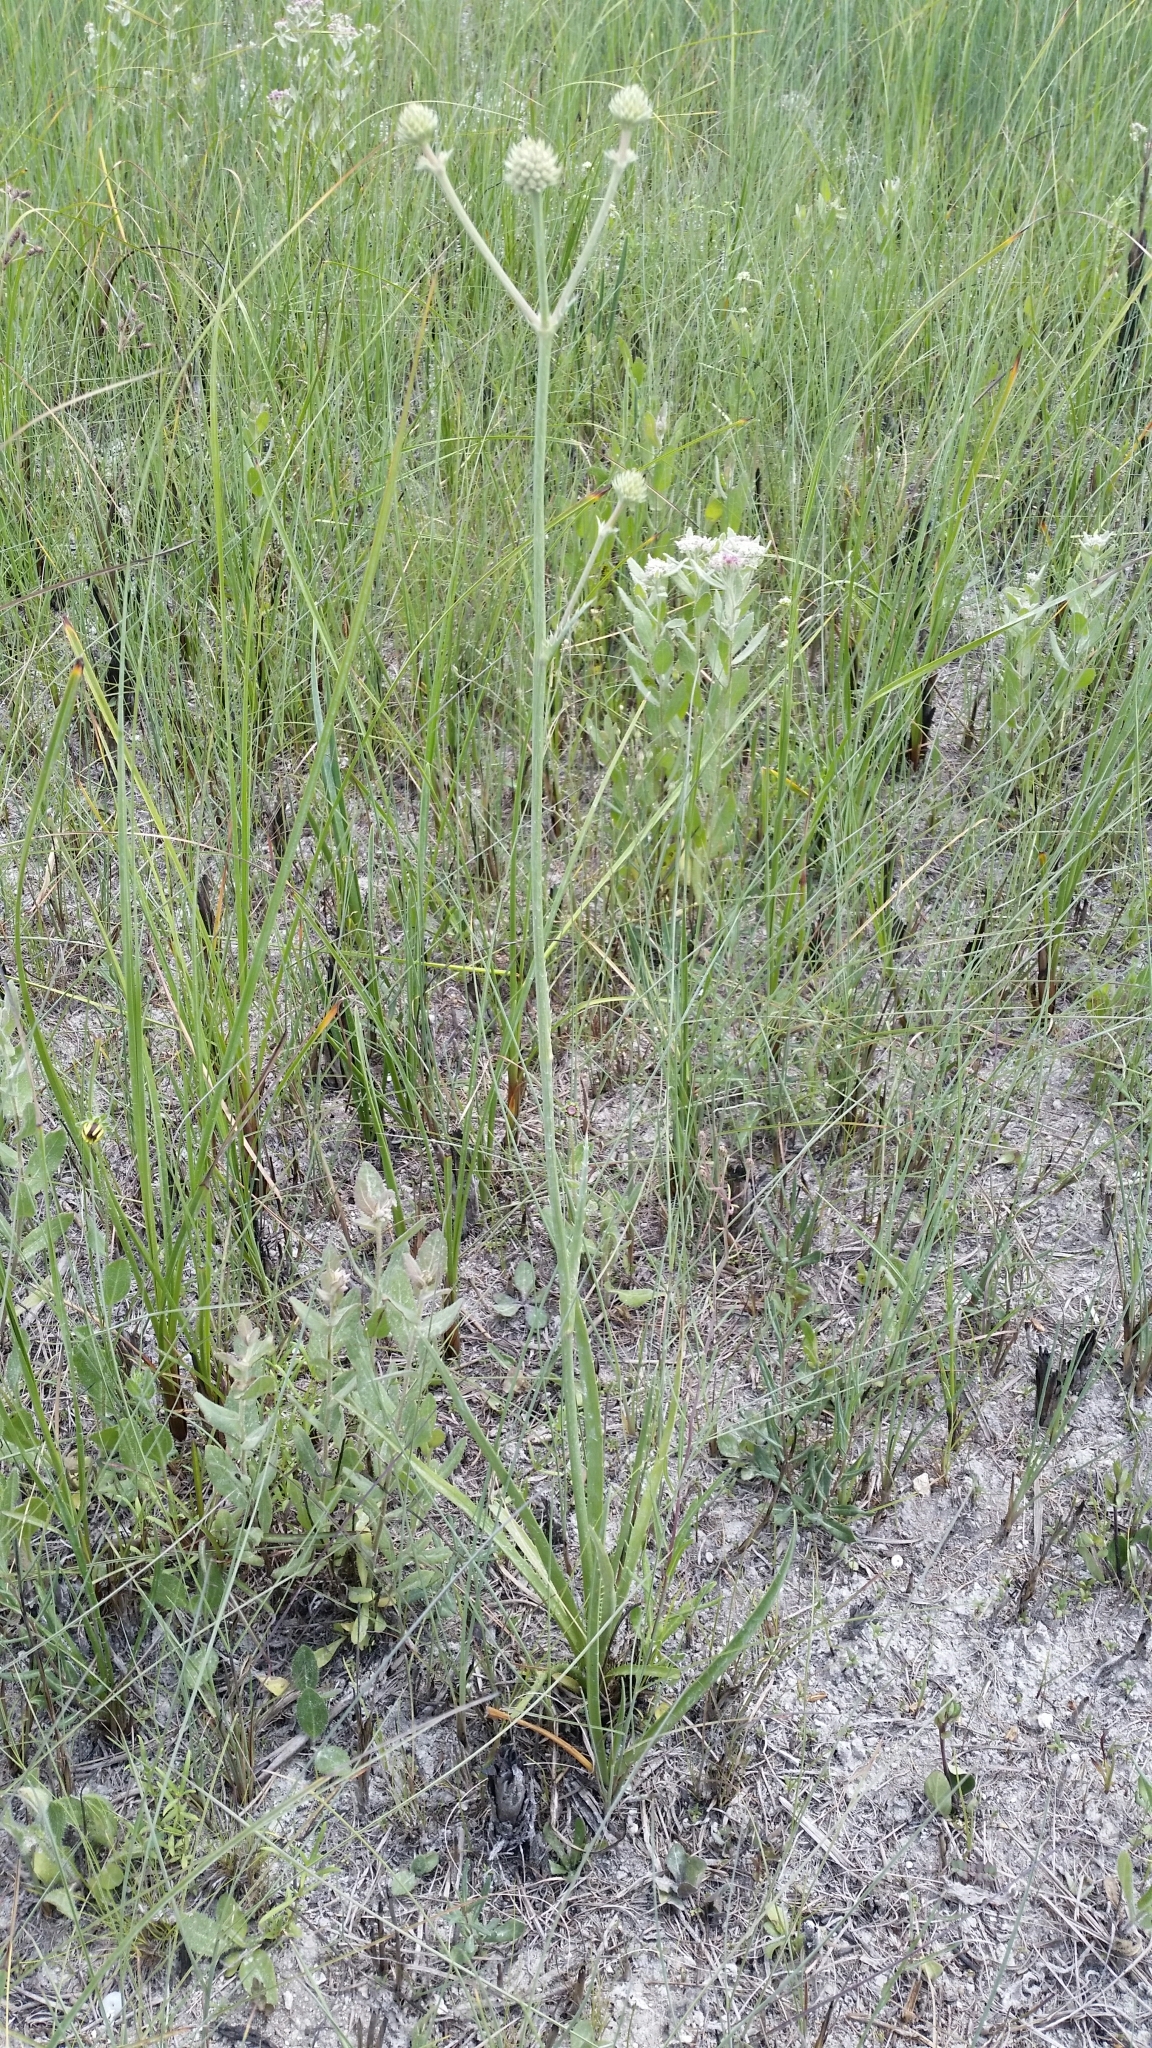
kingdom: Plantae
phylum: Tracheophyta
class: Magnoliopsida
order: Apiales
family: Apiaceae
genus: Eryngium
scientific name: Eryngium yuccifolium
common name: Button eryngo
